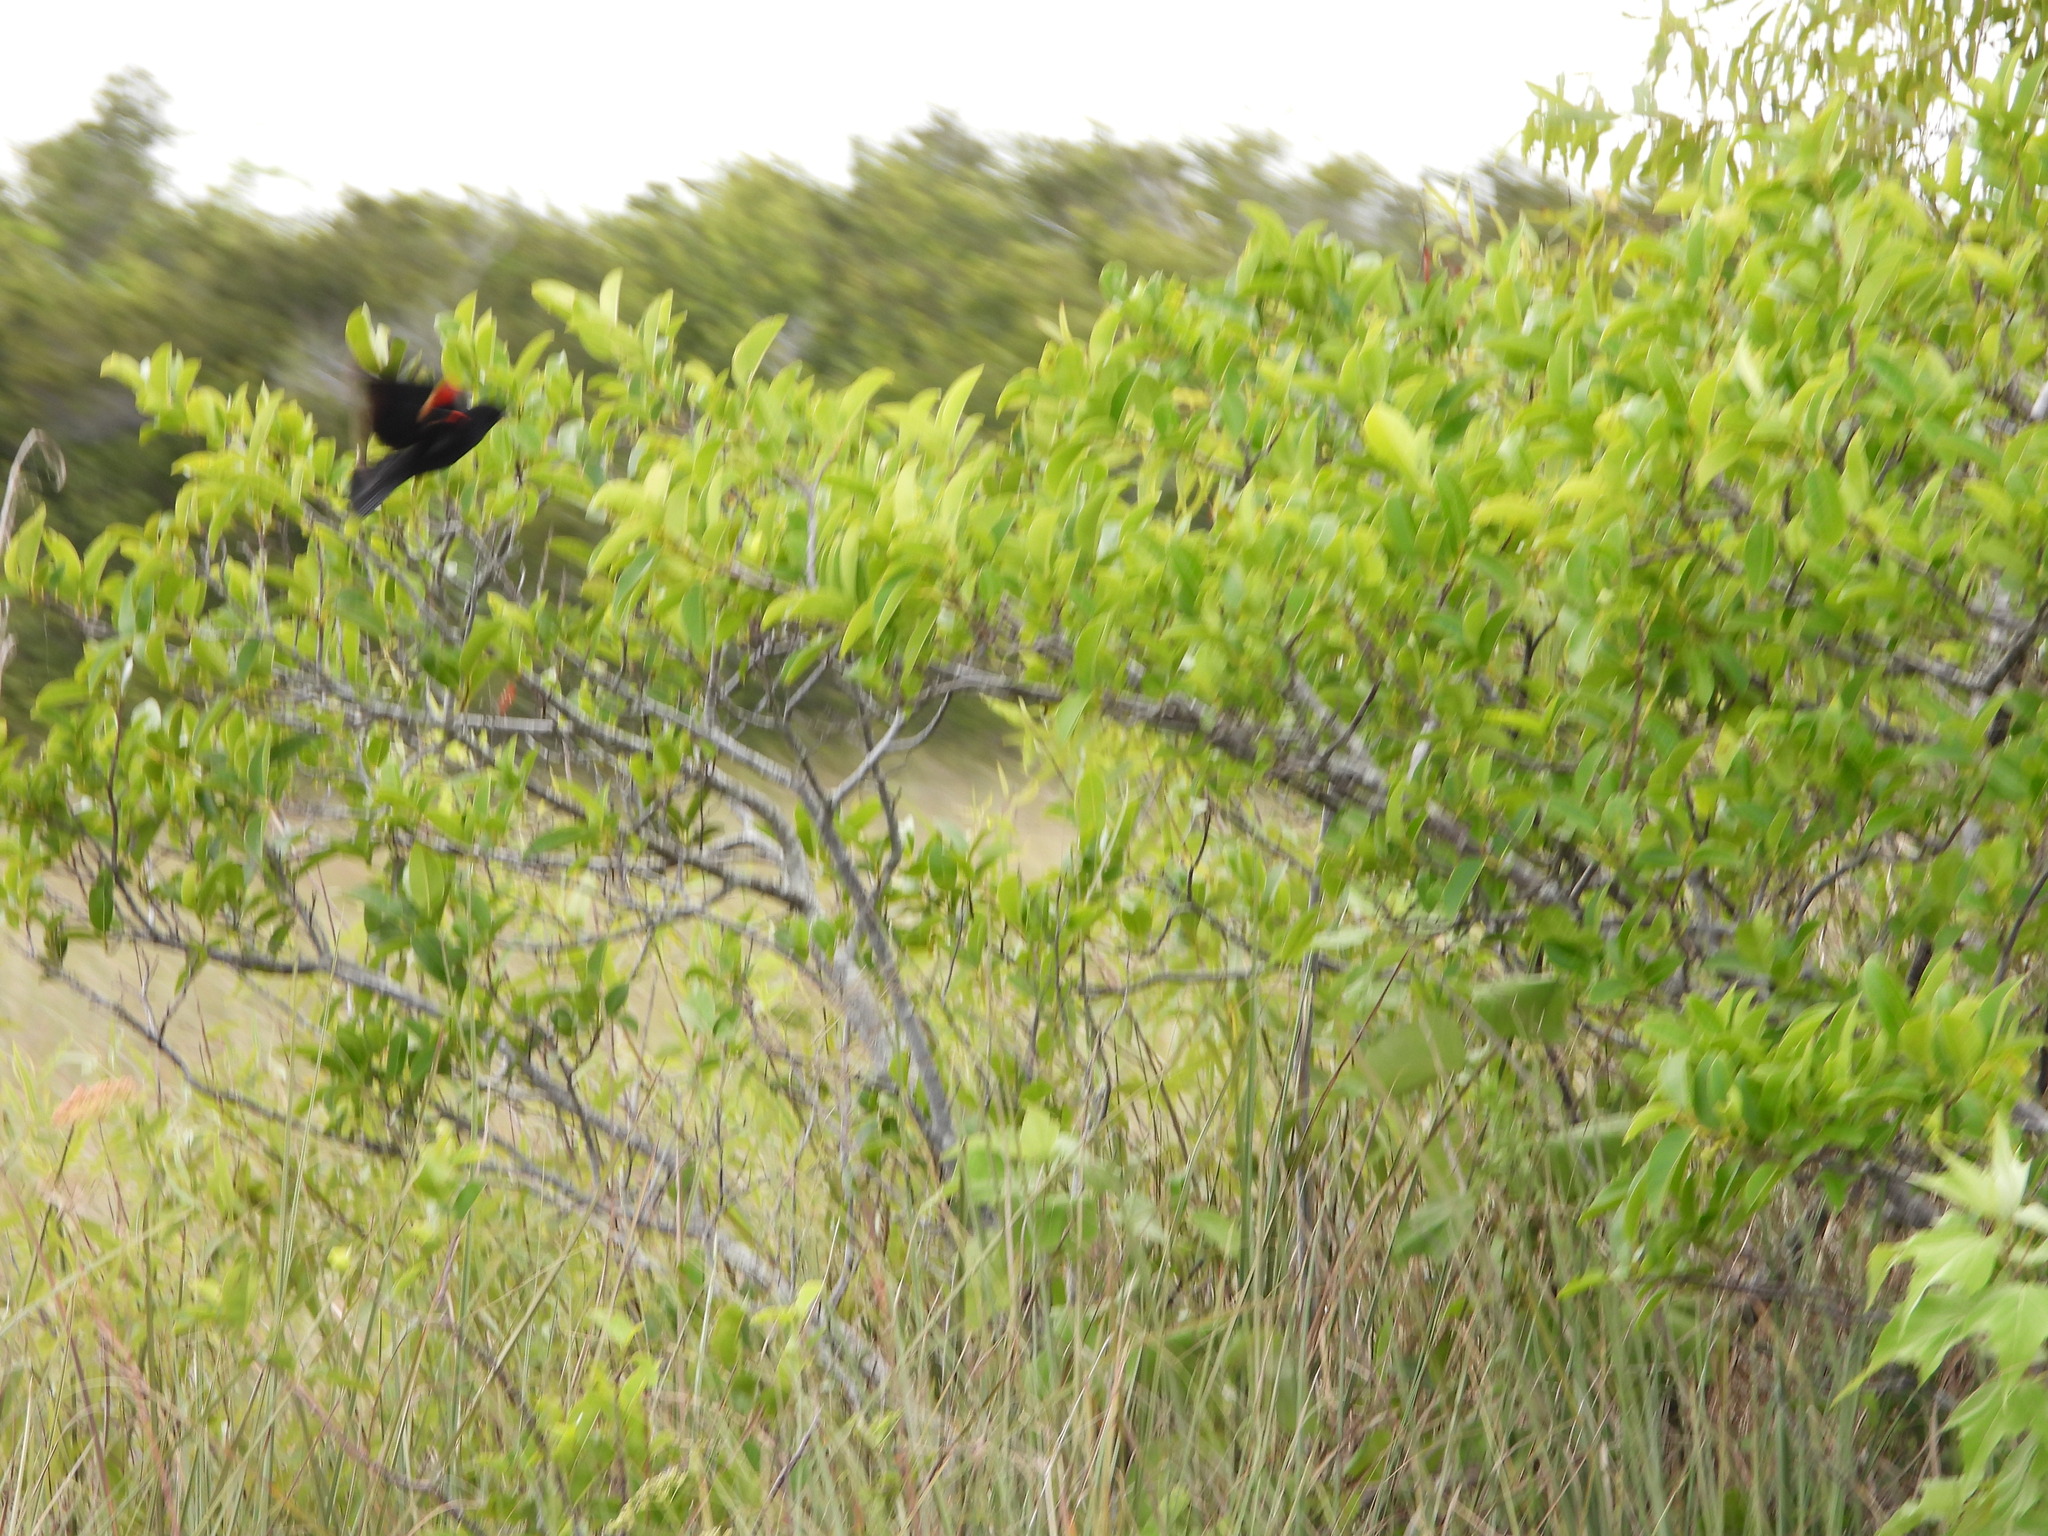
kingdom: Animalia
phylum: Chordata
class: Aves
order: Passeriformes
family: Icteridae
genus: Agelaius
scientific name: Agelaius phoeniceus
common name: Red-winged blackbird
